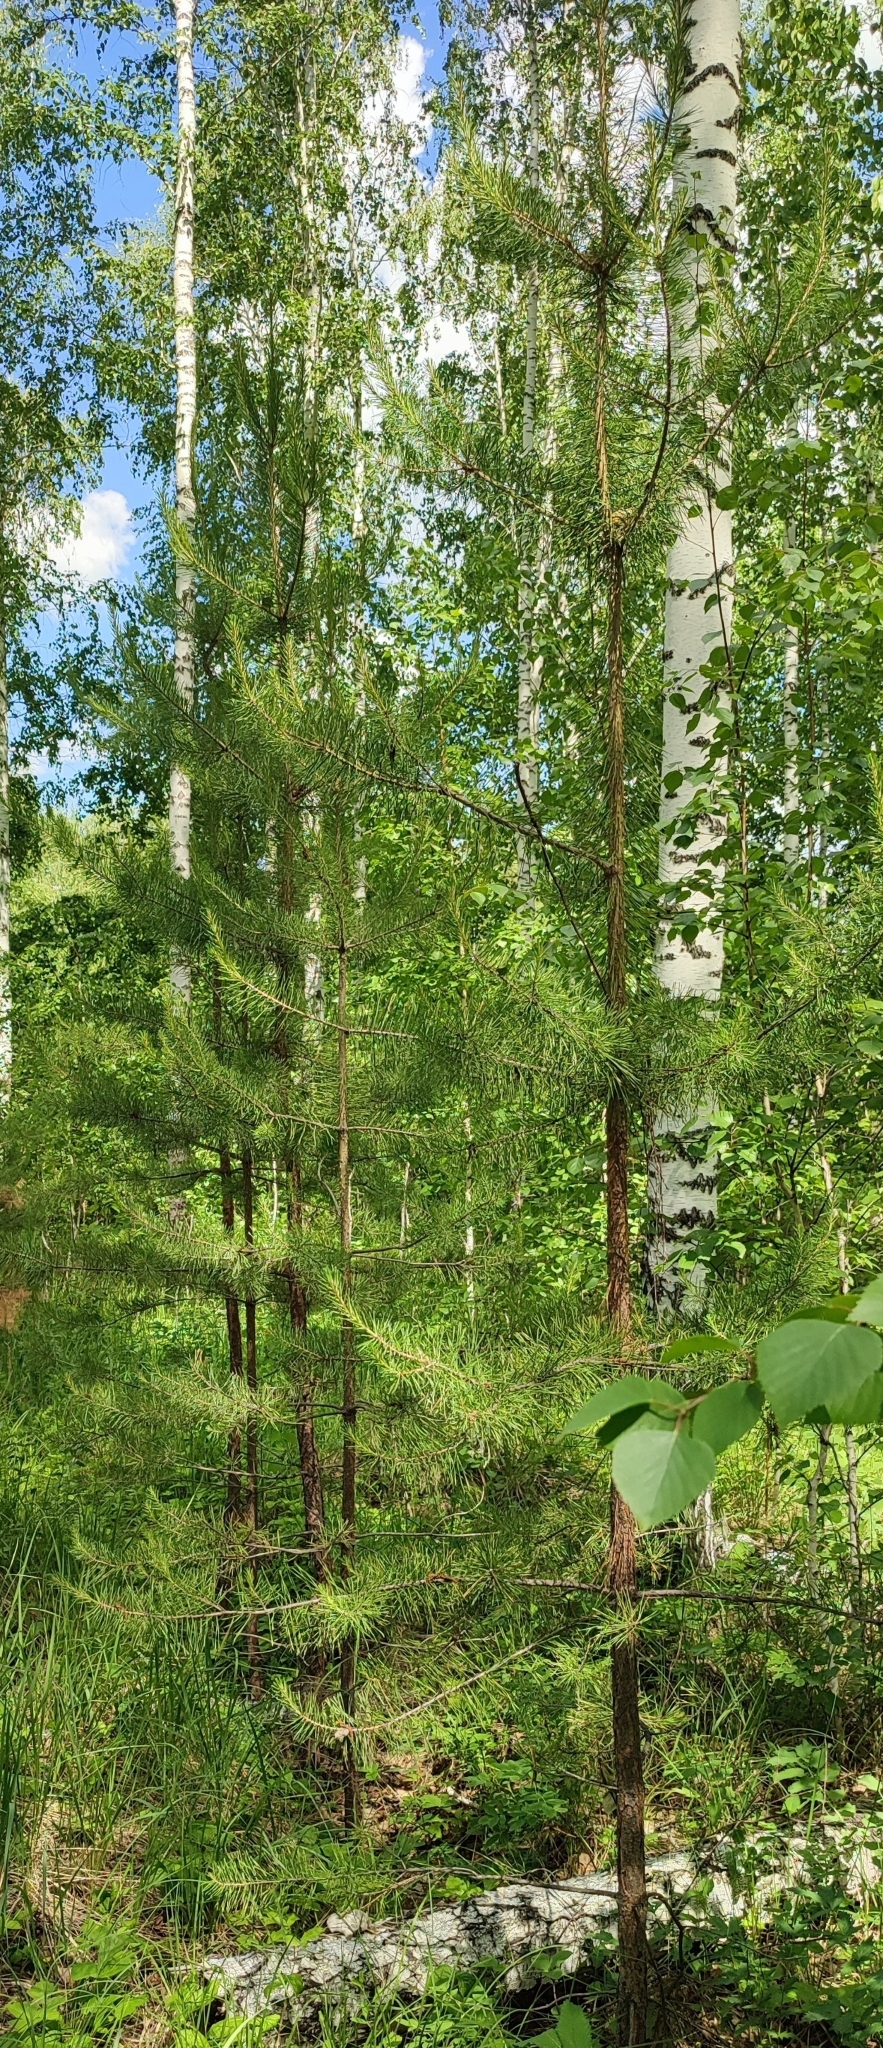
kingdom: Plantae
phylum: Tracheophyta
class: Pinopsida
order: Pinales
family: Pinaceae
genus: Pinus
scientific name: Pinus sylvestris
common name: Scots pine
